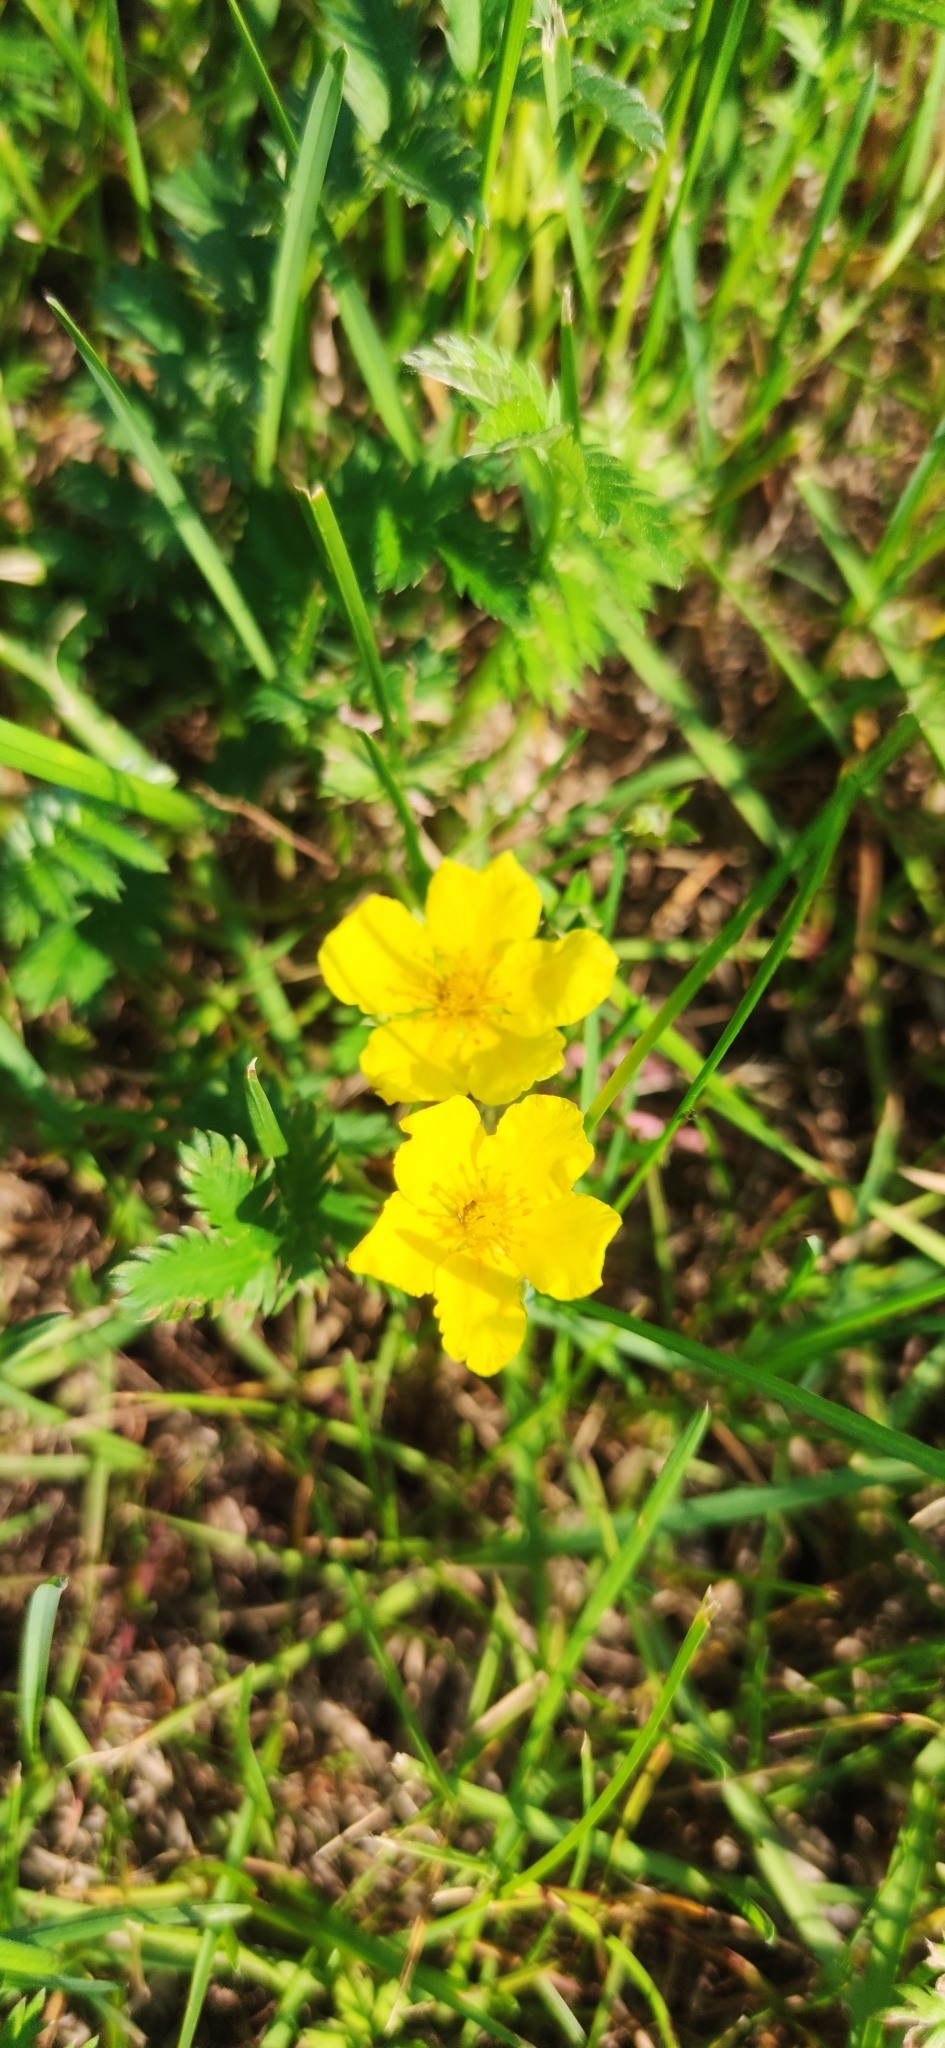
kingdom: Plantae
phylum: Tracheophyta
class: Magnoliopsida
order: Rosales
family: Rosaceae
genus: Argentina
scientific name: Argentina anserina
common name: Common silverweed
